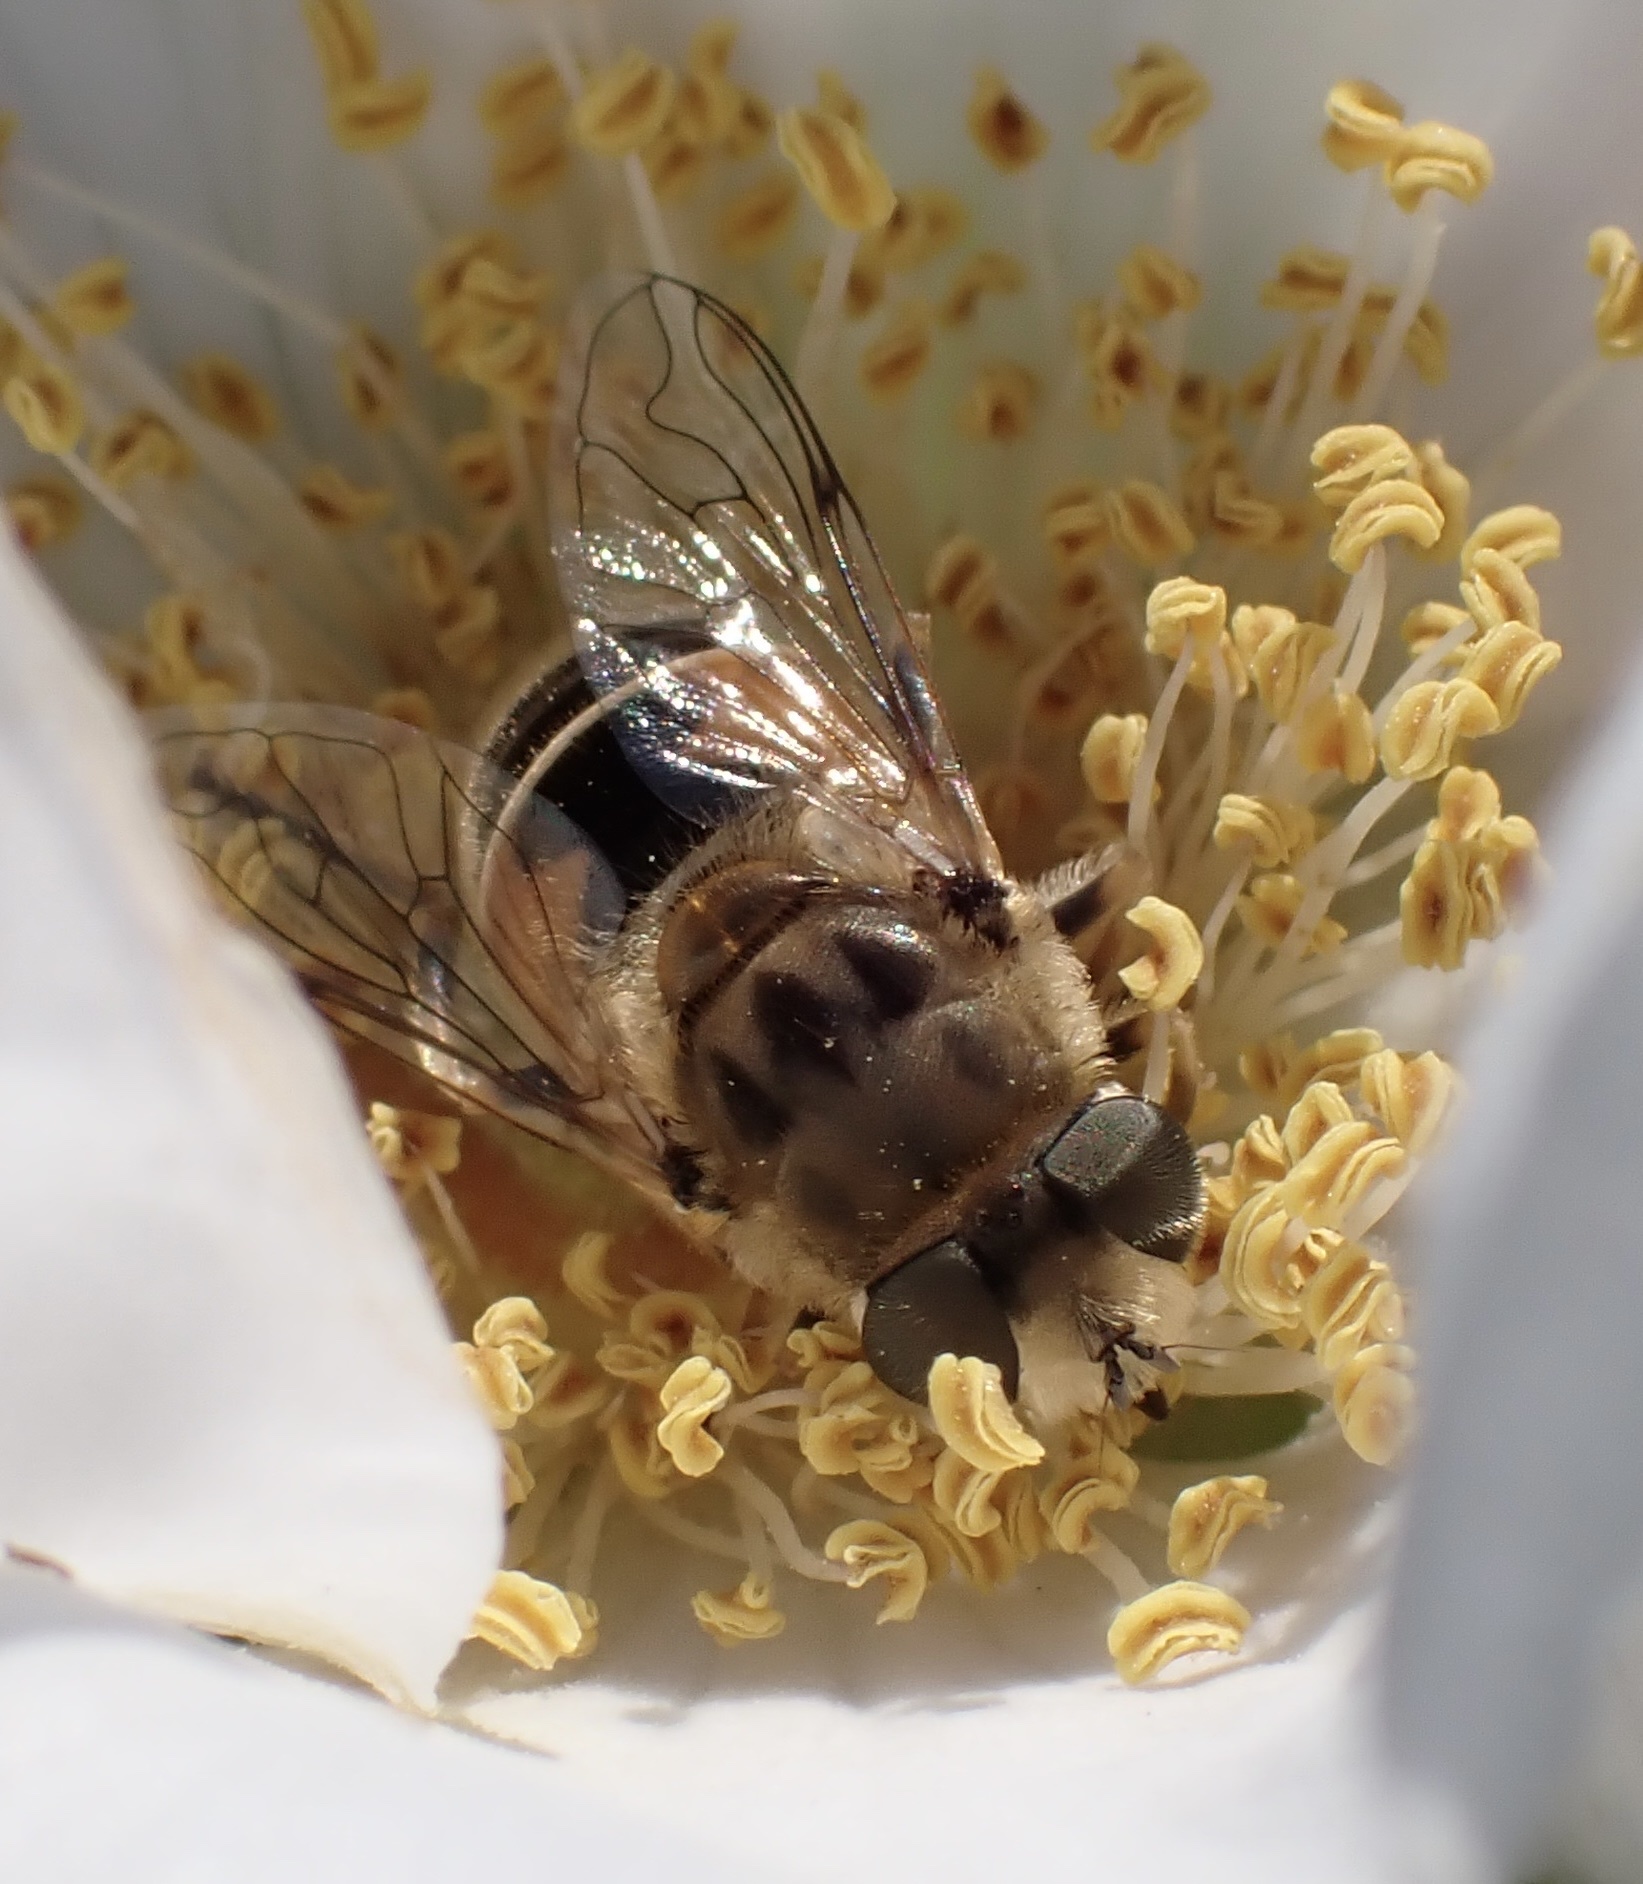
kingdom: Animalia
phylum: Arthropoda
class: Insecta
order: Diptera
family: Syrphidae
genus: Eristalis
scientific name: Eristalis arbustorum
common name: Hover fly
